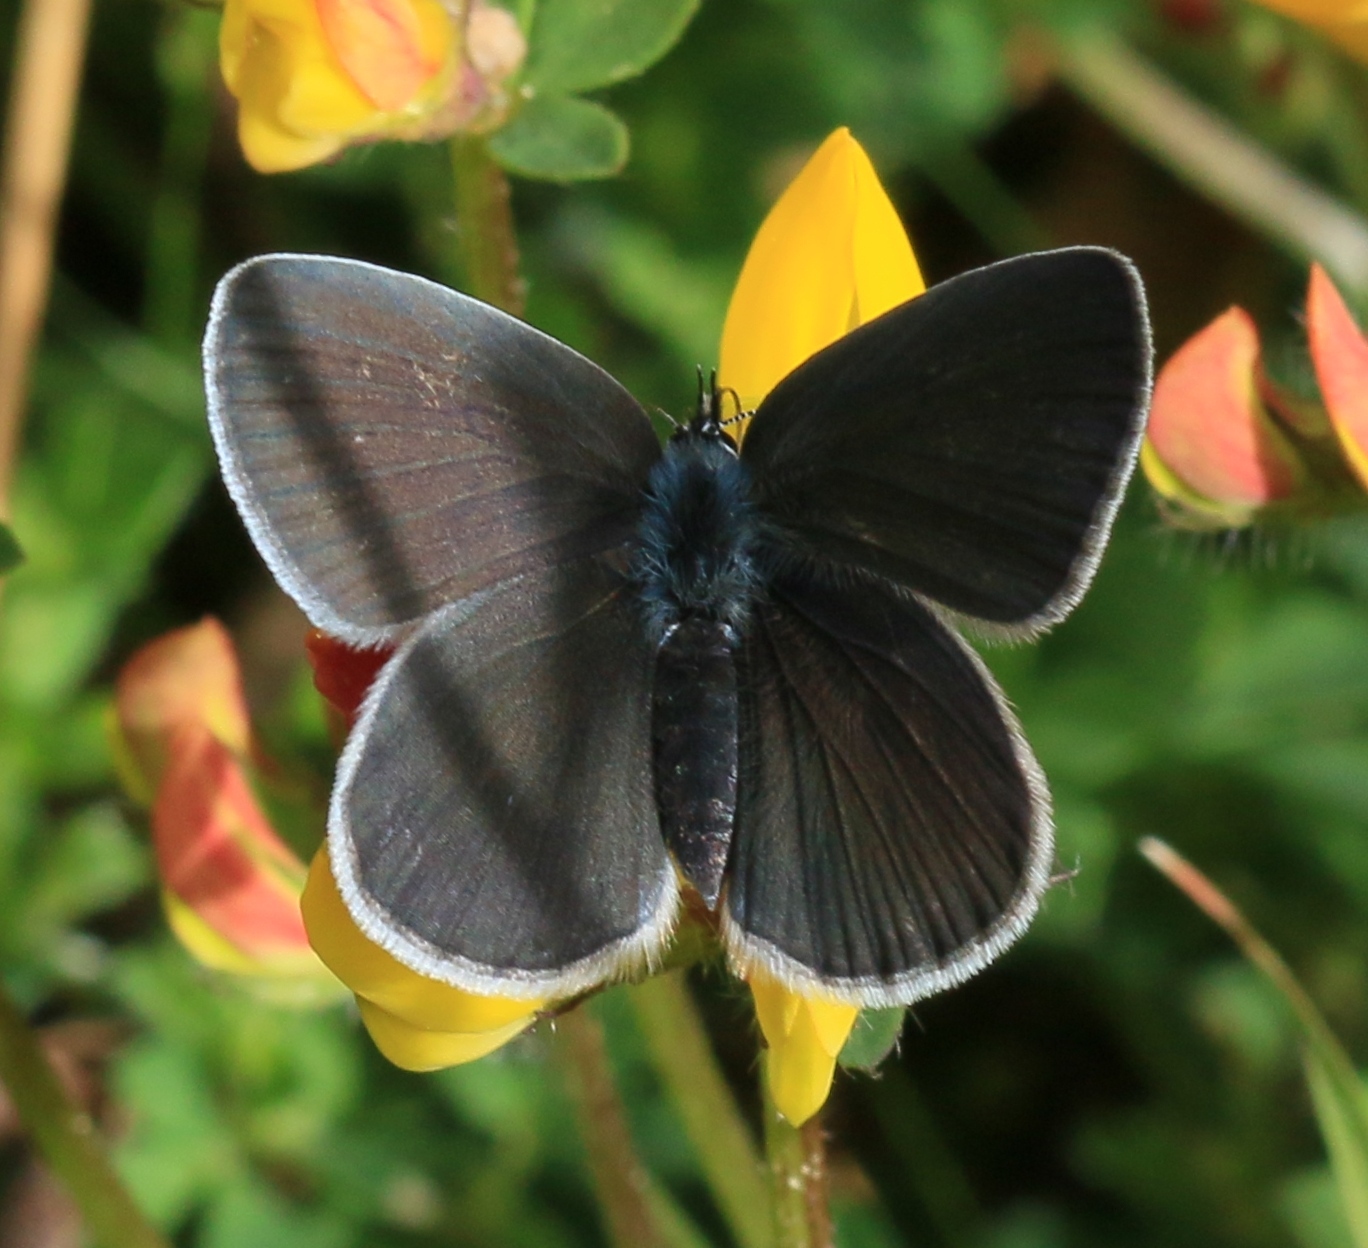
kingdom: Animalia
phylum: Arthropoda
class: Insecta
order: Lepidoptera
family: Lycaenidae
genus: Cupido
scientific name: Cupido minimus
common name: Small blue
